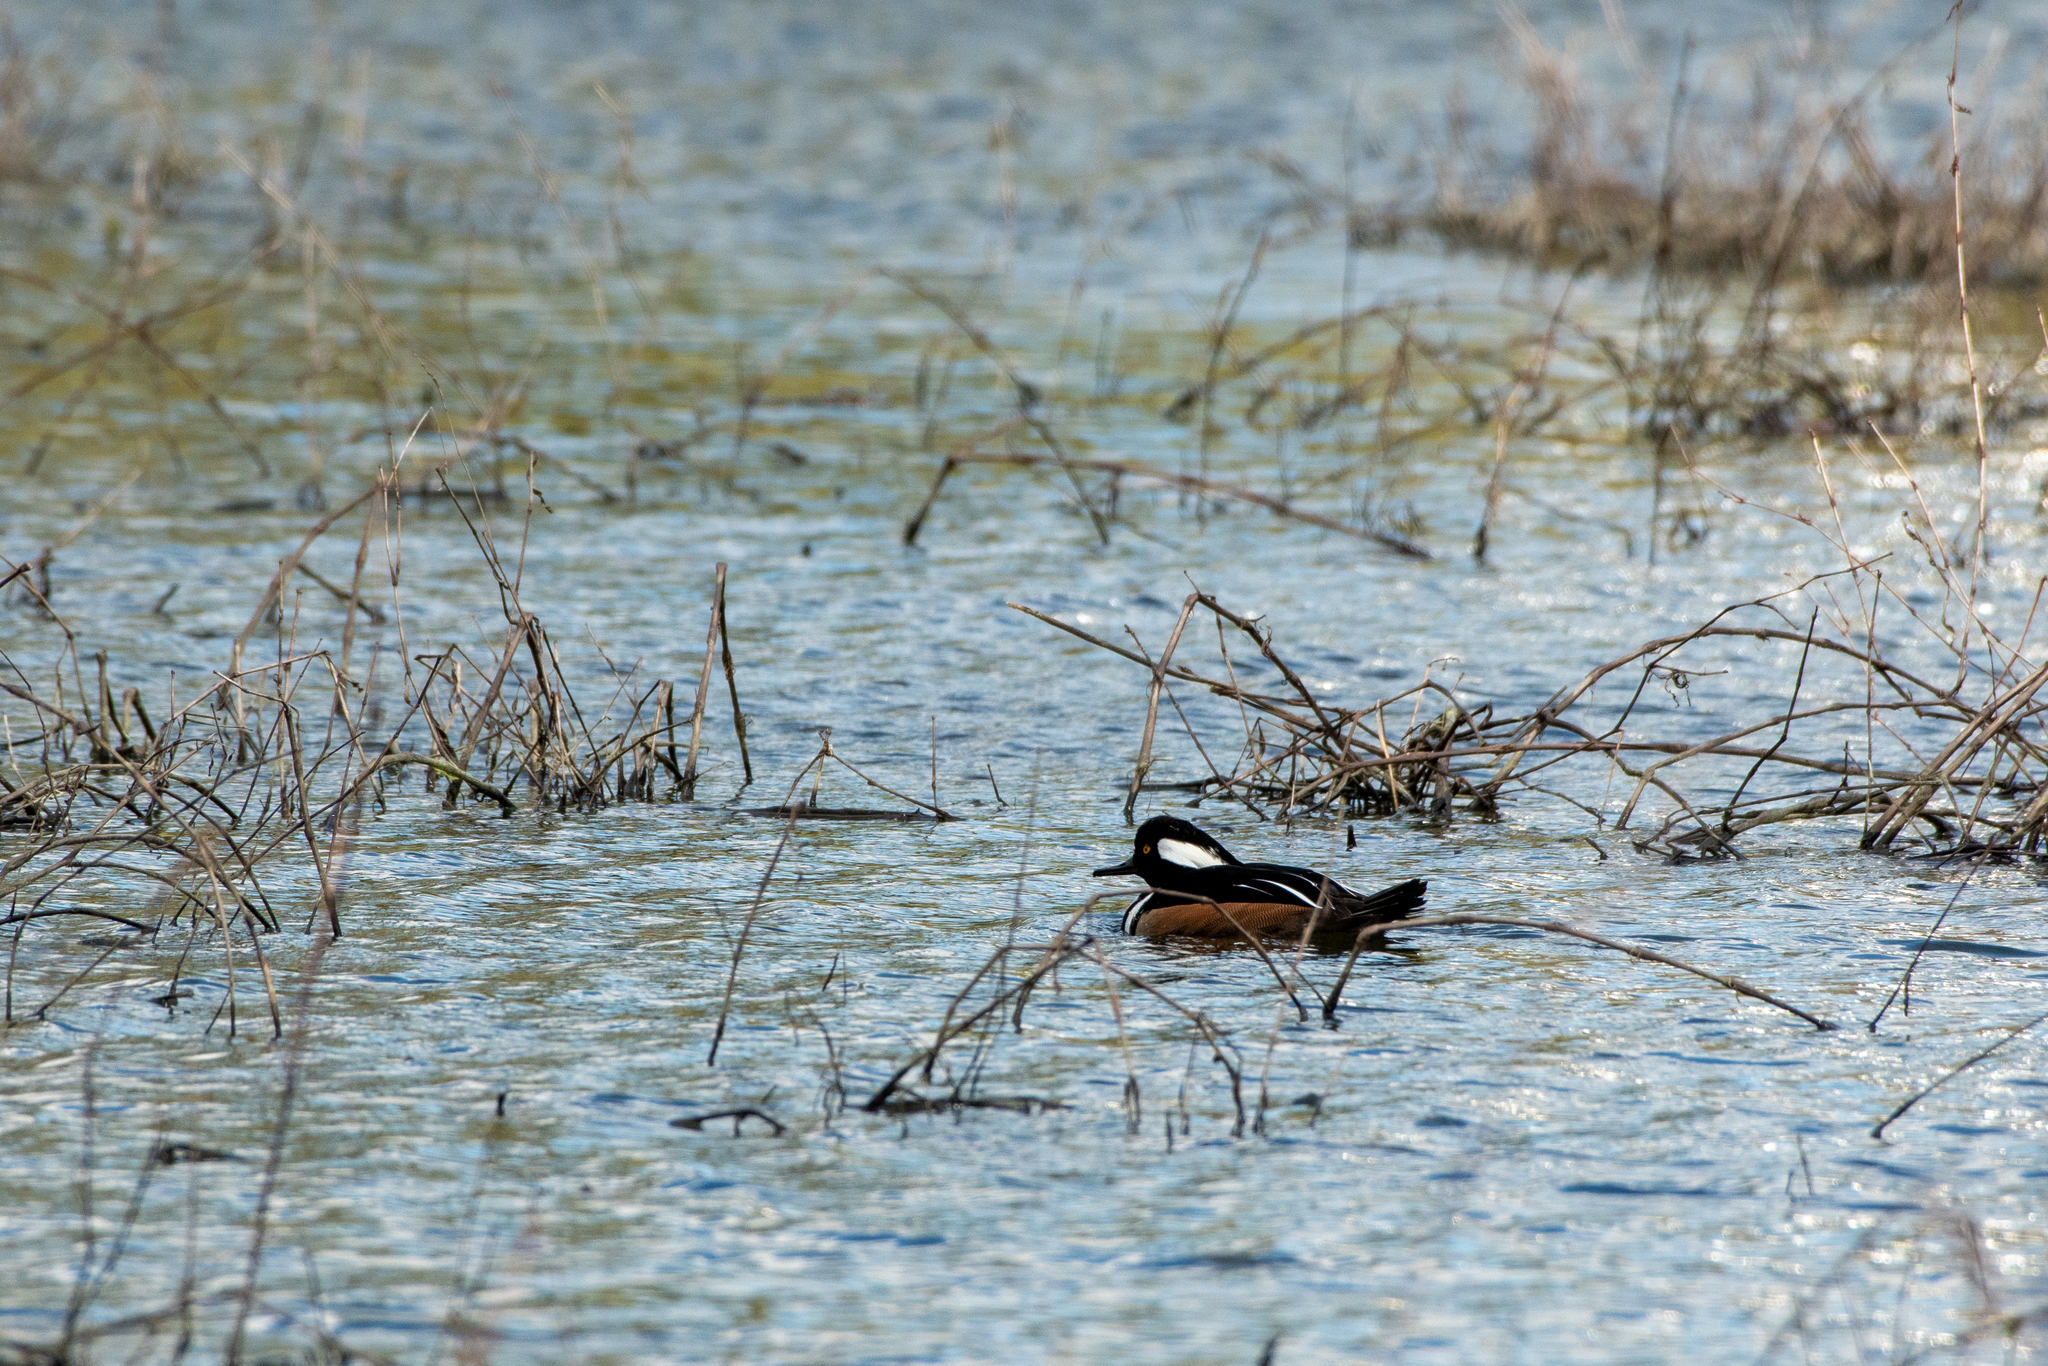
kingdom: Animalia
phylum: Chordata
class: Aves
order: Anseriformes
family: Anatidae
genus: Lophodytes
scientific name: Lophodytes cucullatus
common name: Hooded merganser
